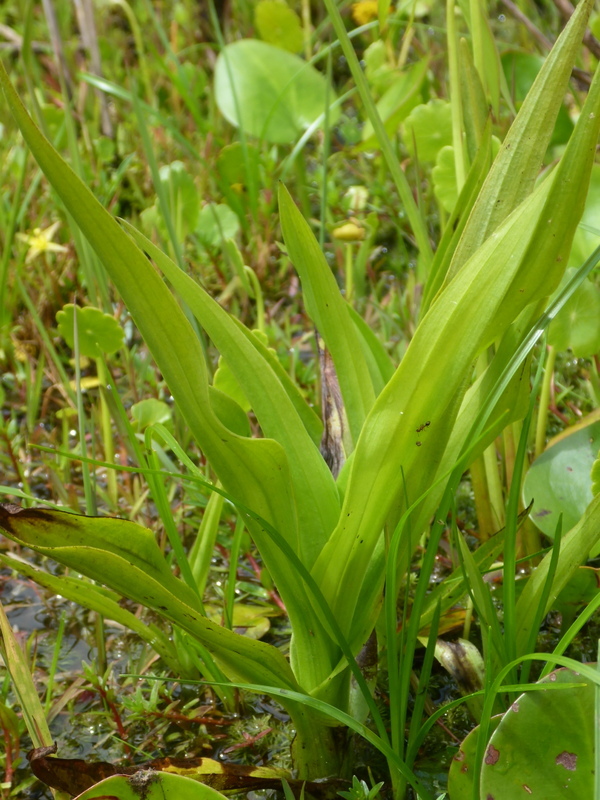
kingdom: Plantae
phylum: Tracheophyta
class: Liliopsida
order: Asparagales
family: Orchidaceae
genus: Habenaria
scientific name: Habenaria repens
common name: Water orchid
